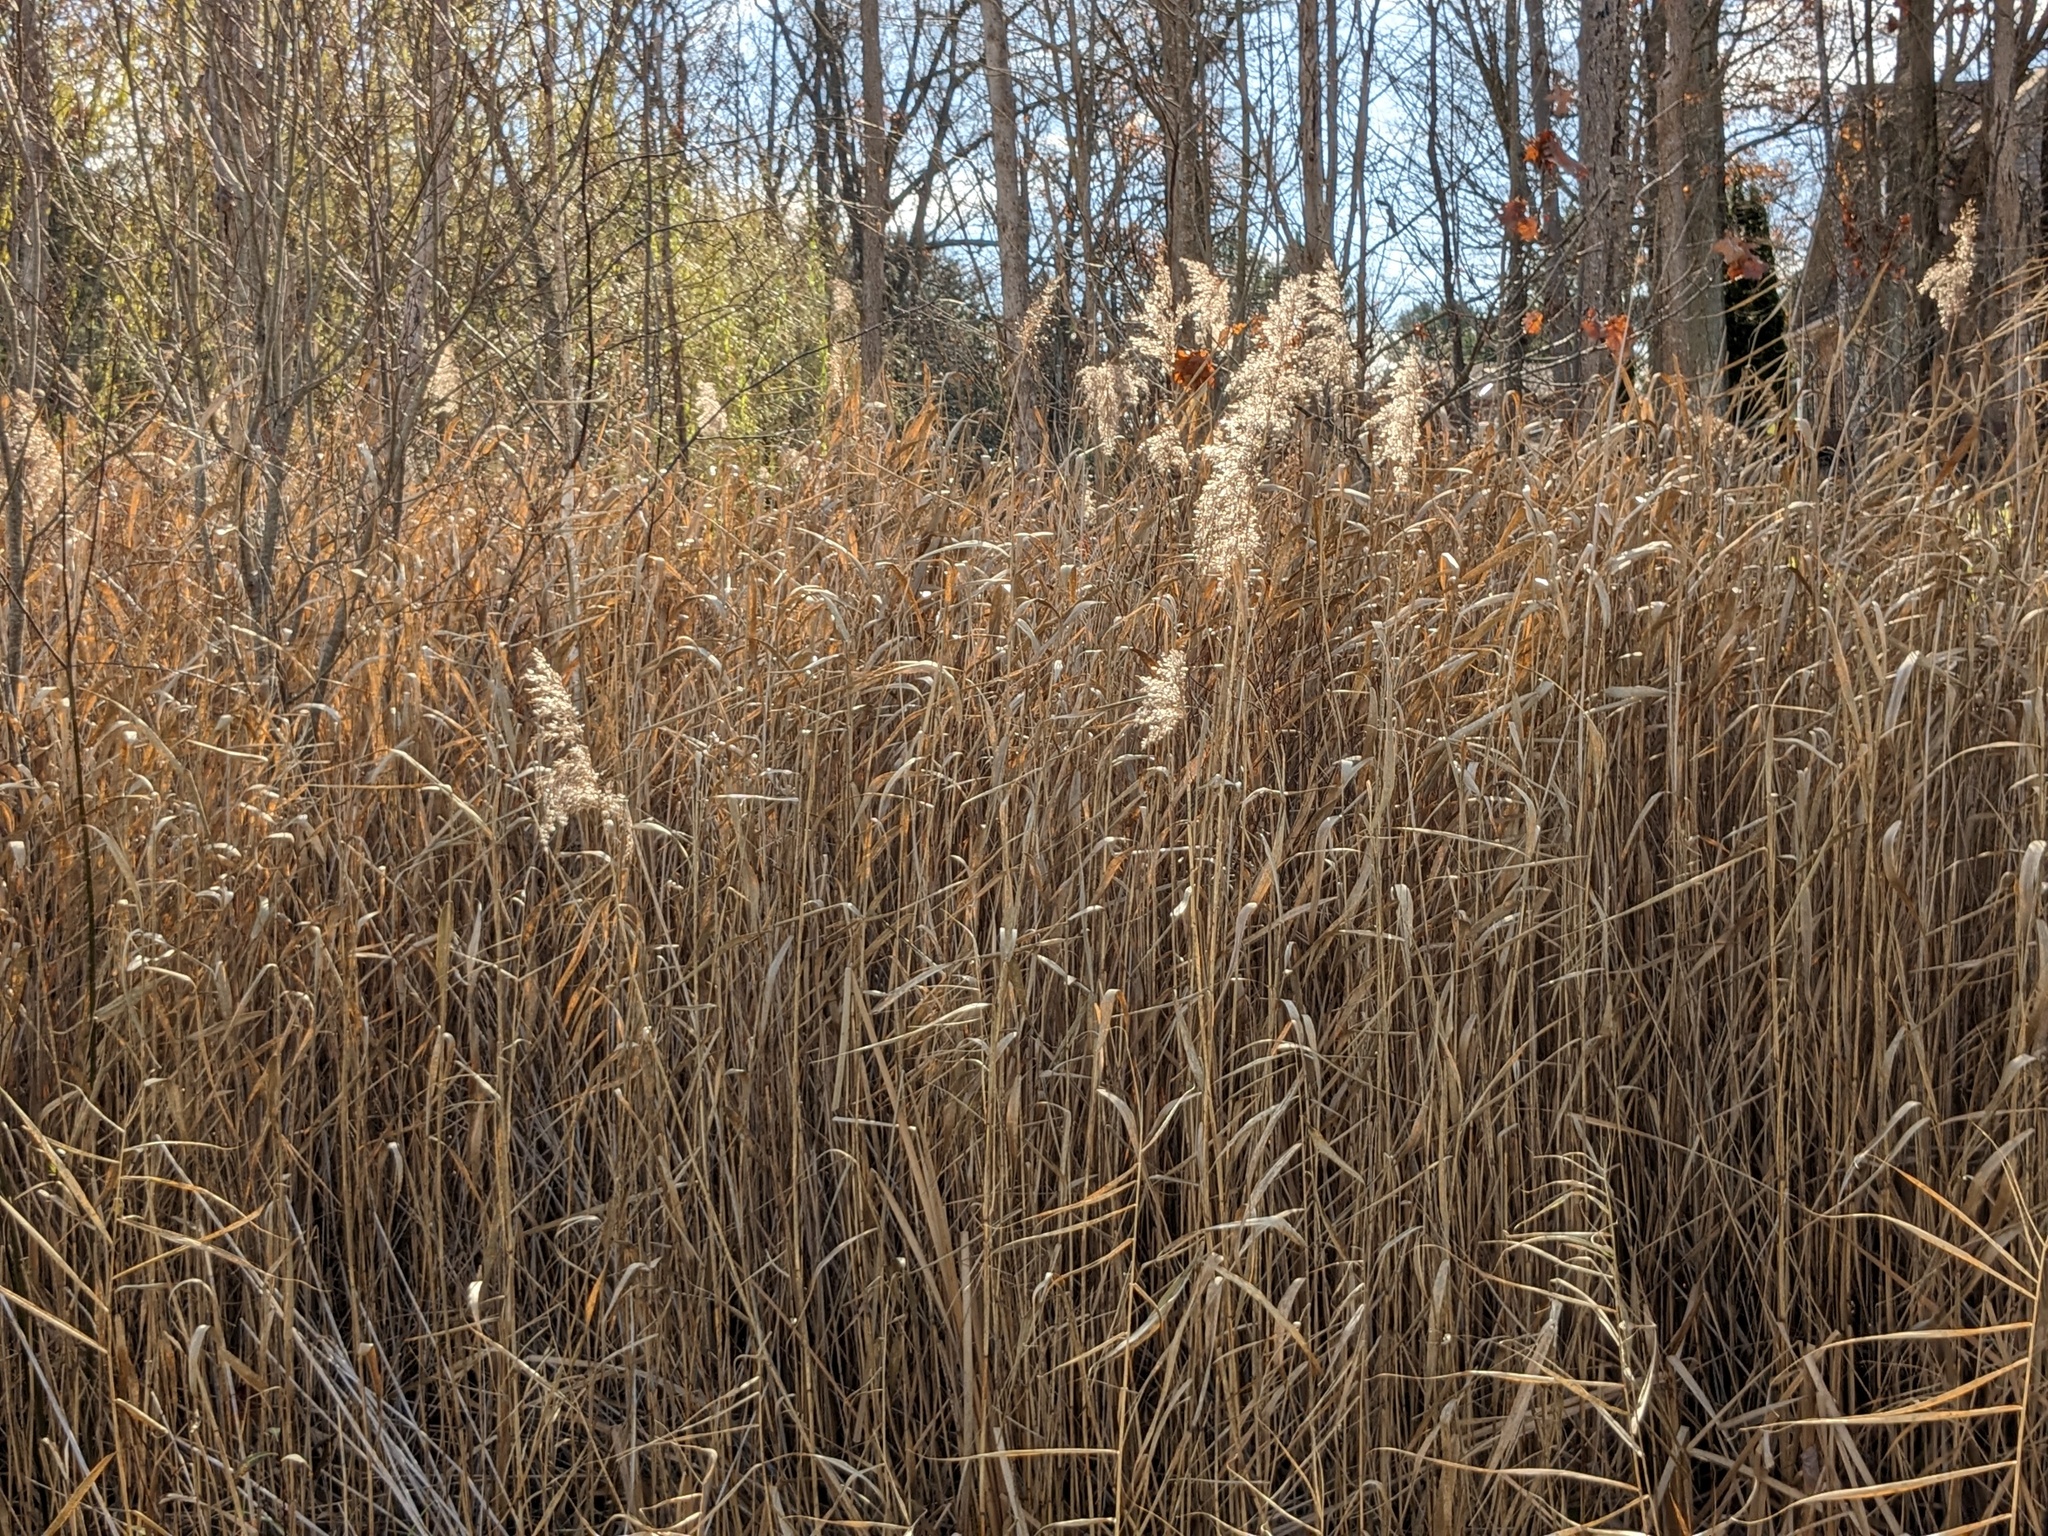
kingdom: Plantae
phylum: Tracheophyta
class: Liliopsida
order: Poales
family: Poaceae
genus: Phragmites
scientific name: Phragmites australis
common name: Common reed
